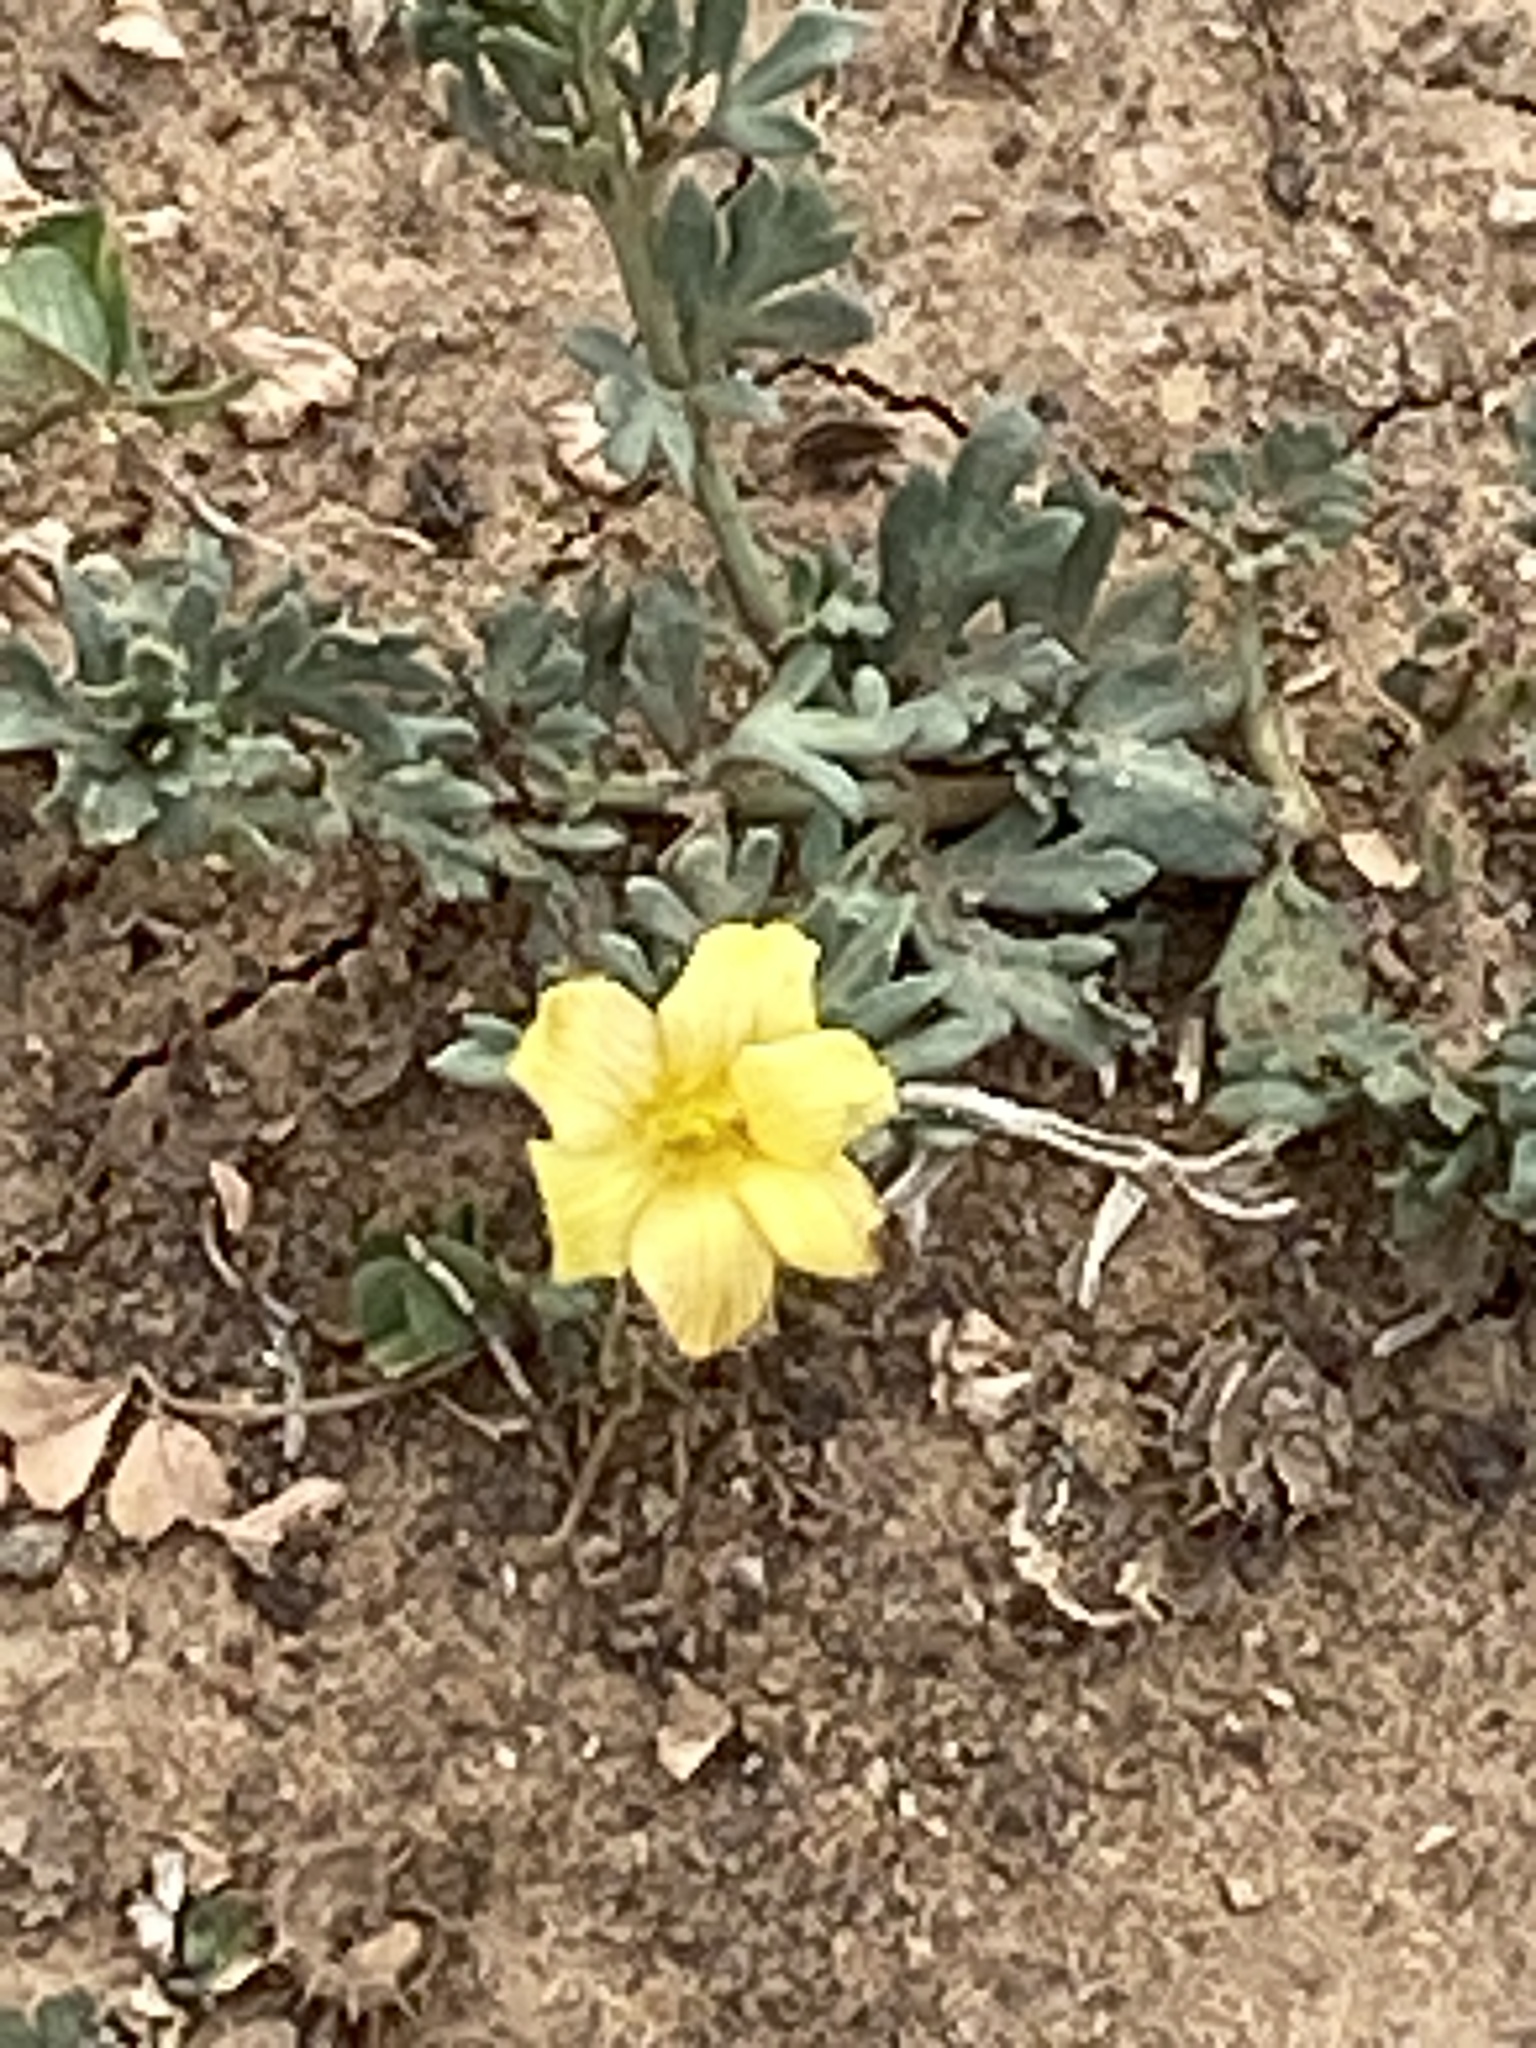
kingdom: Plantae
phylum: Tracheophyta
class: Magnoliopsida
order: Lamiales
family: Oleaceae
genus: Menodora
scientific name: Menodora heterophylla
